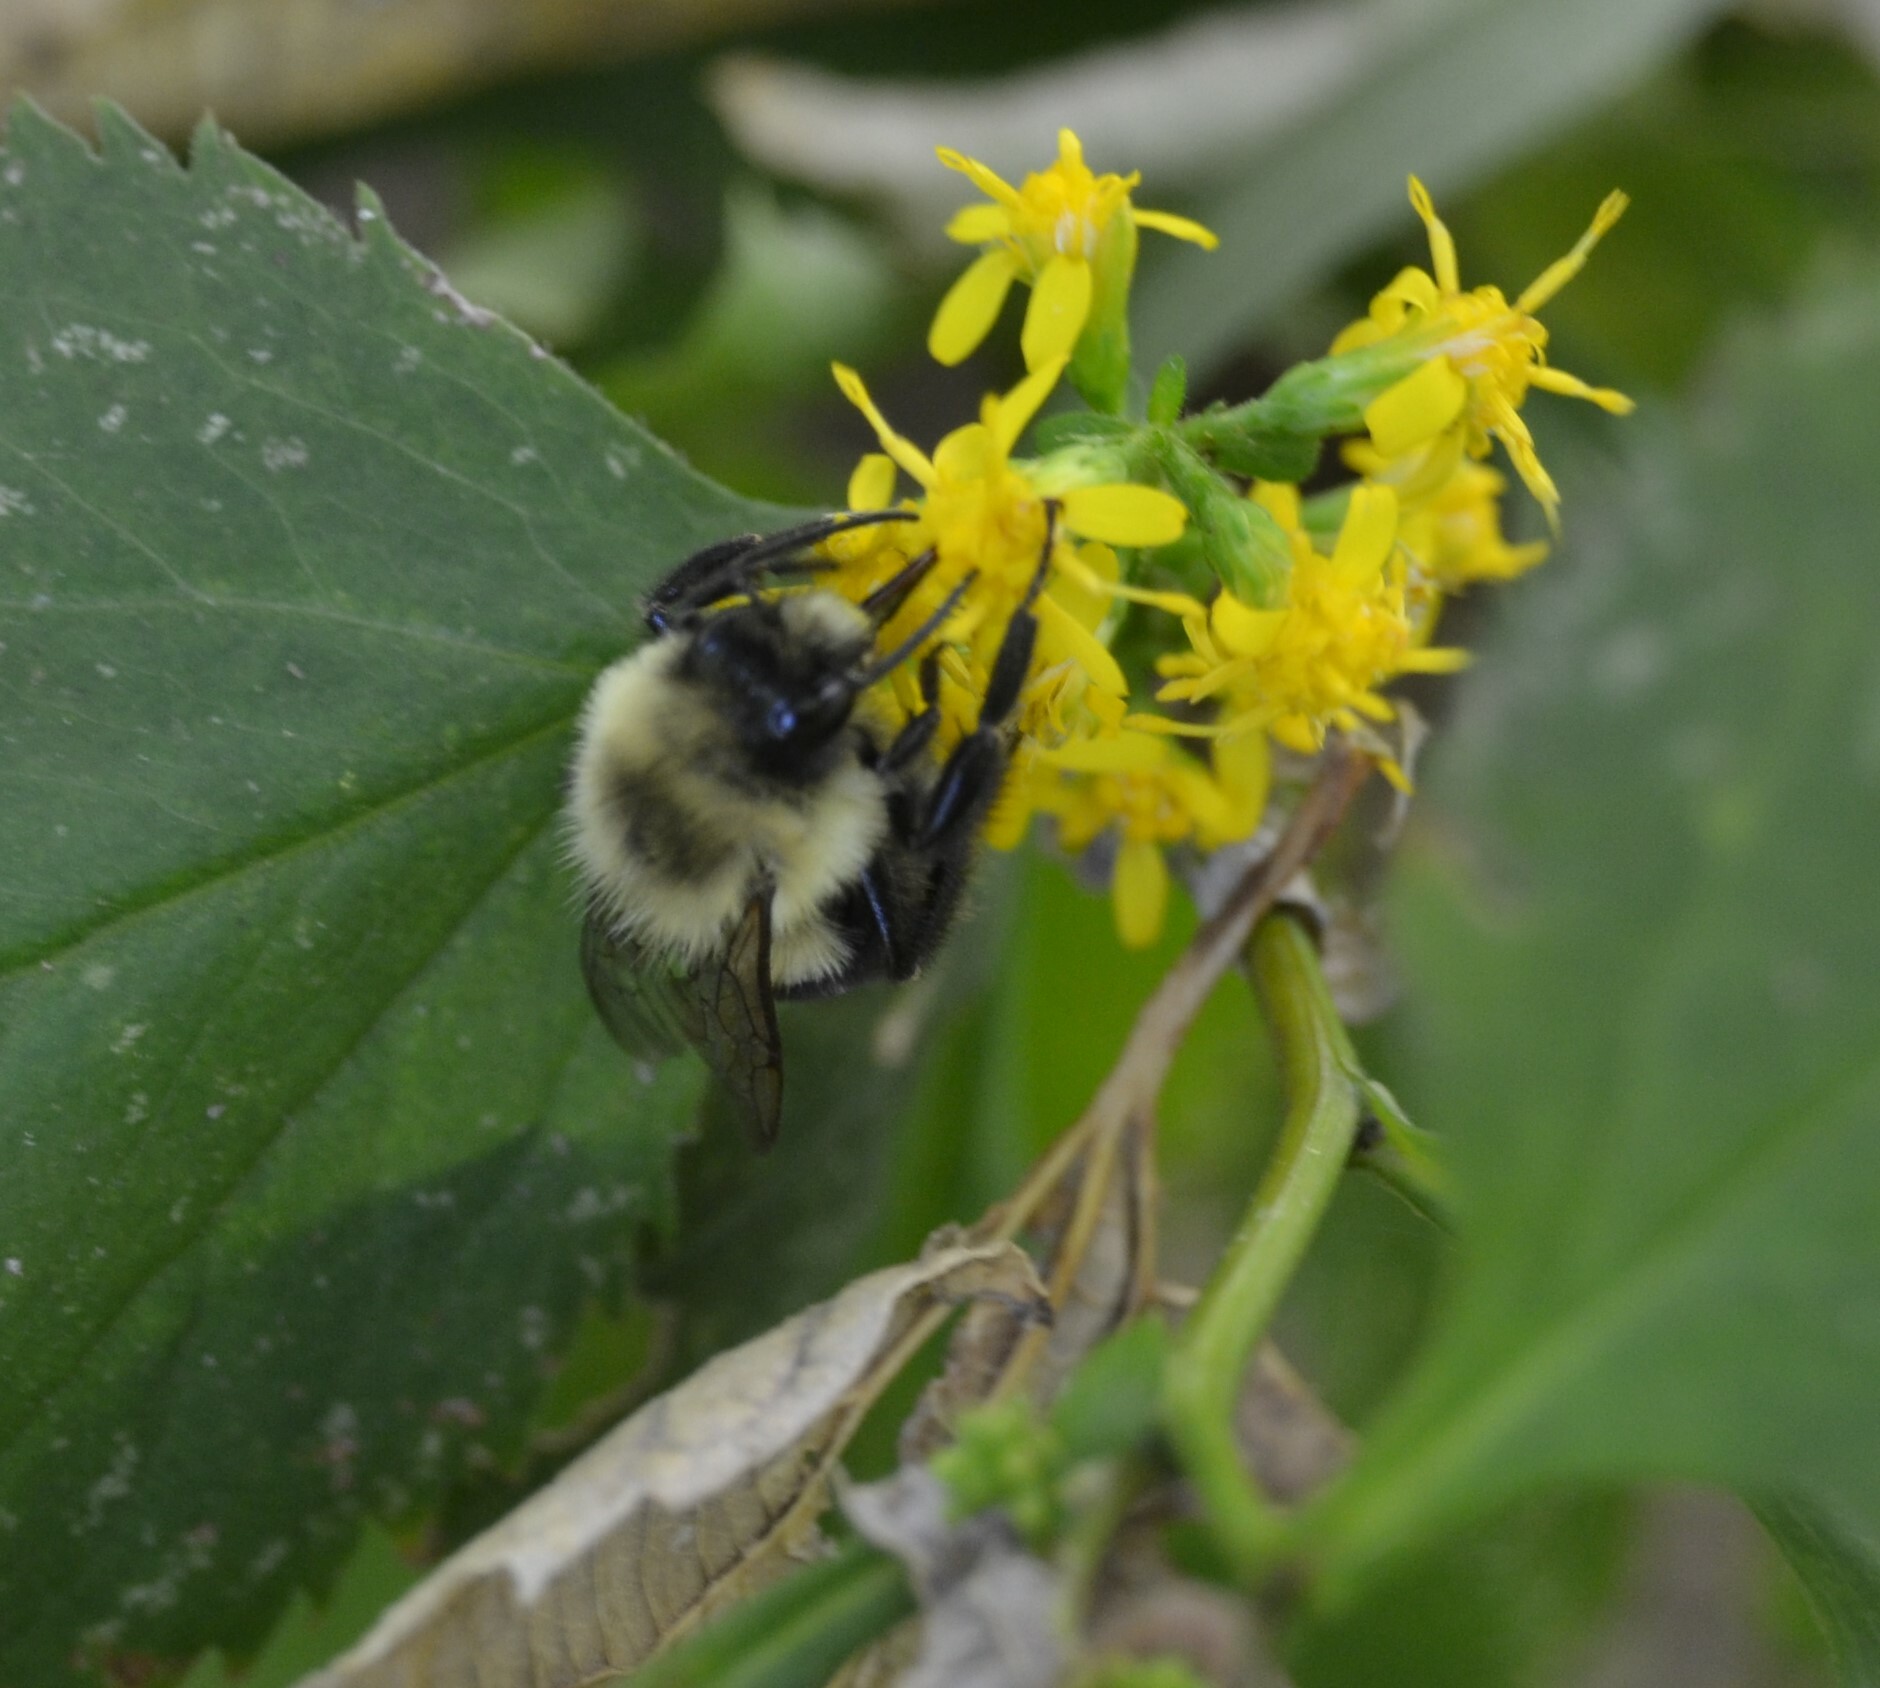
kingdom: Animalia
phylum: Arthropoda
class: Insecta
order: Hymenoptera
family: Apidae
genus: Bombus
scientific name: Bombus impatiens
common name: Common eastern bumble bee
